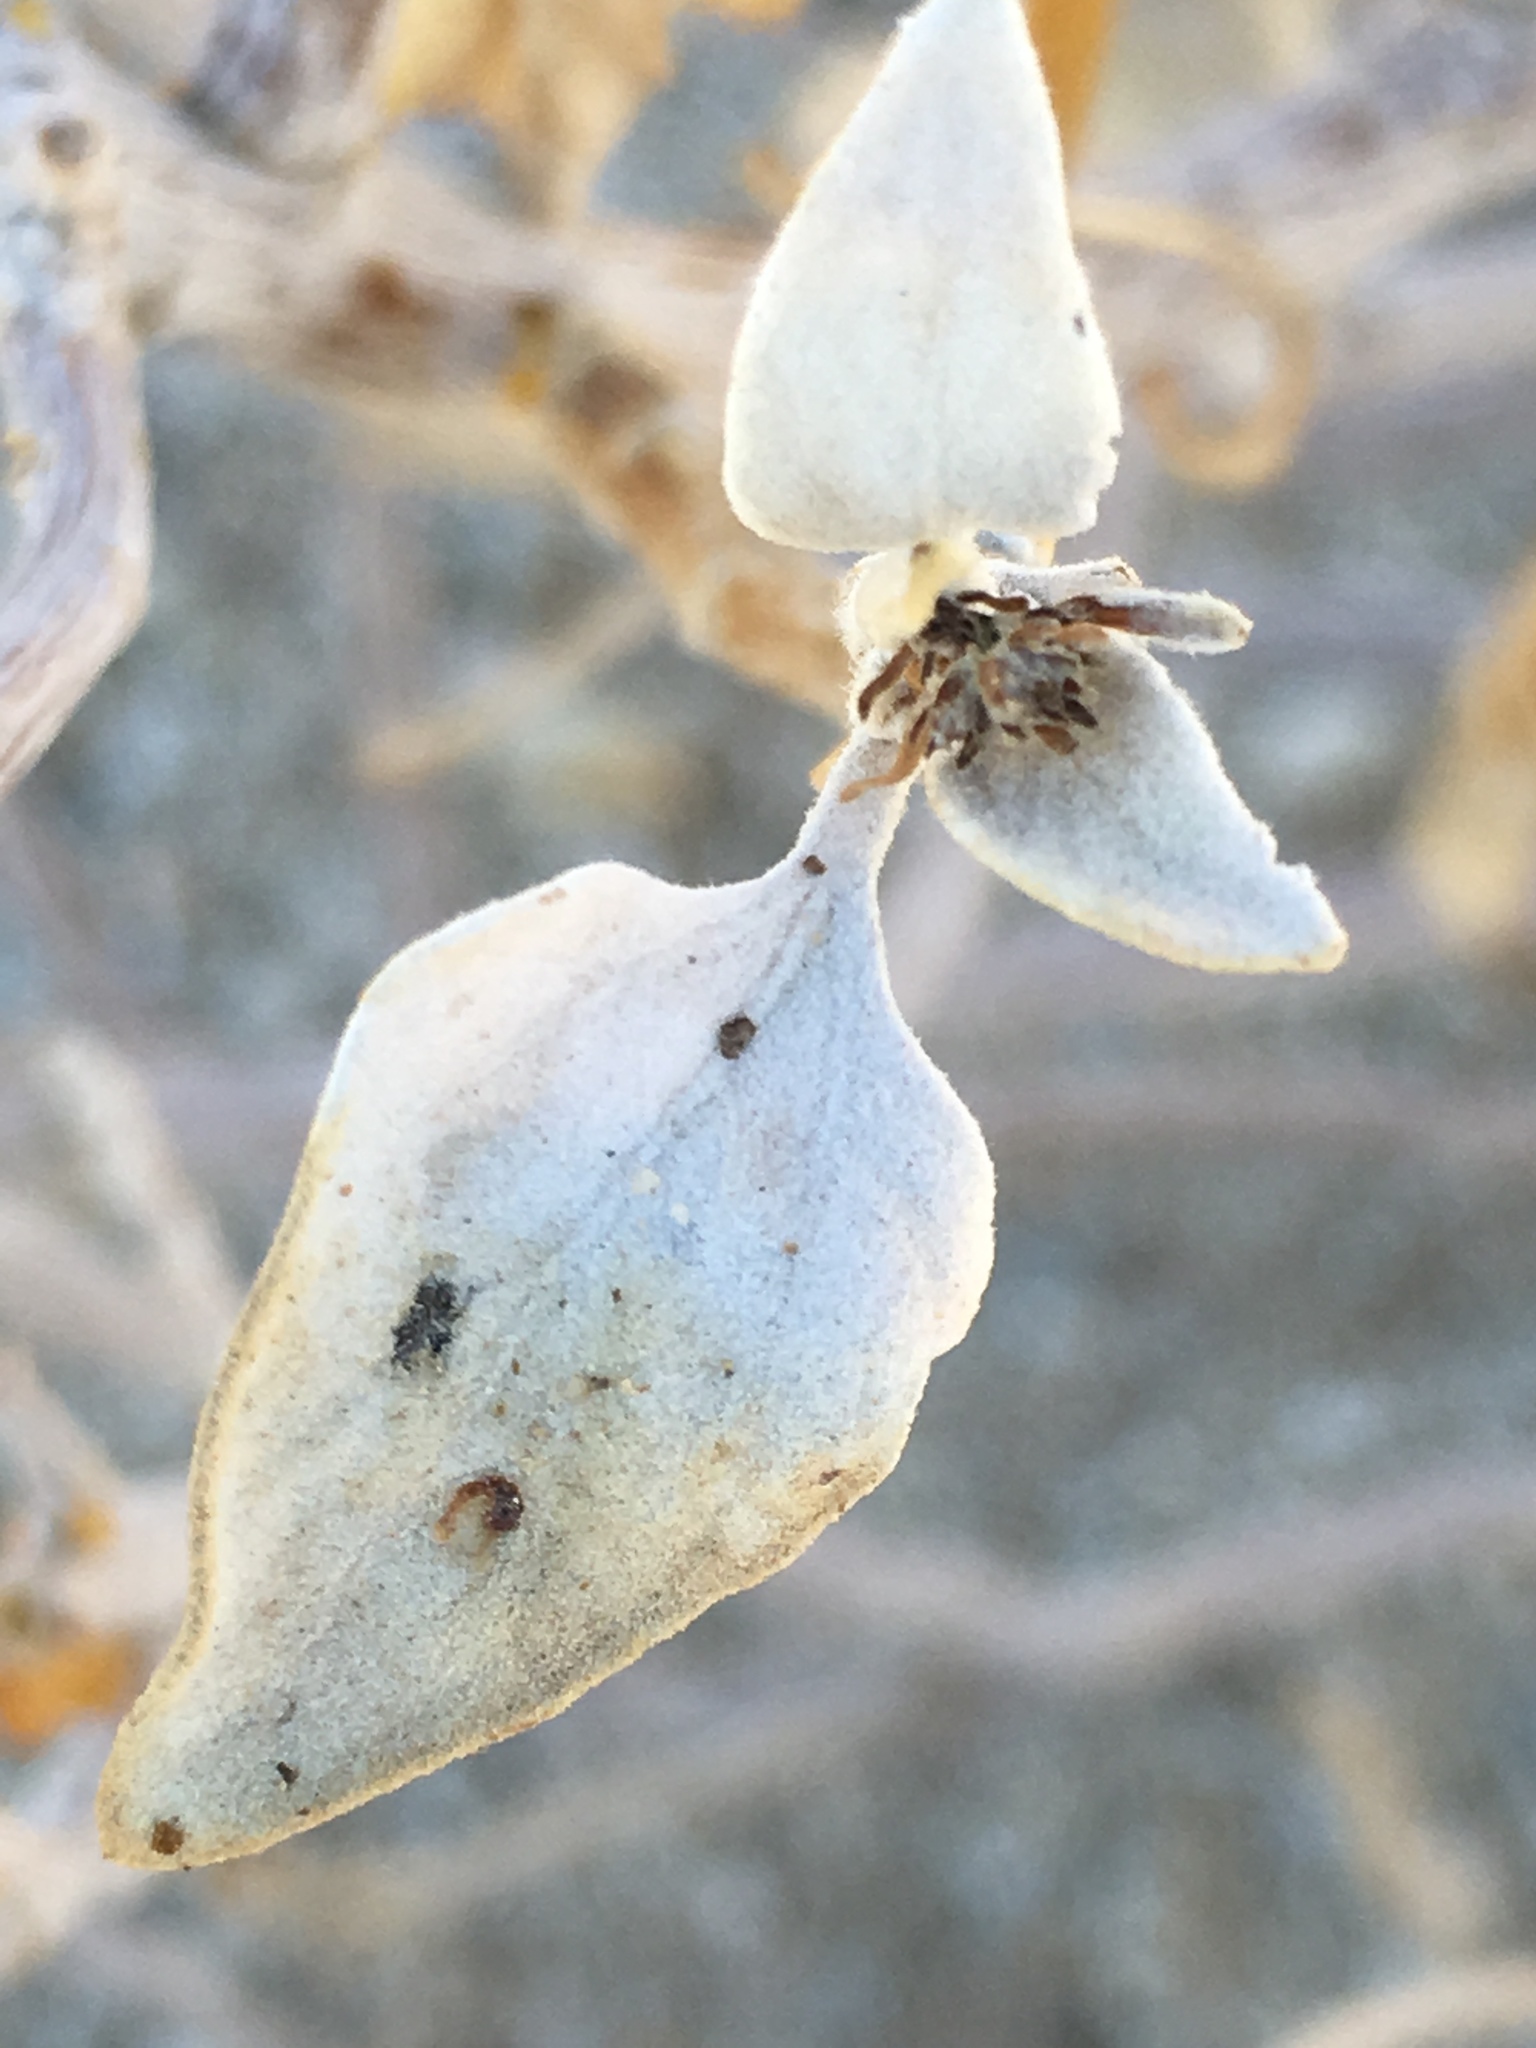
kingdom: Plantae
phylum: Tracheophyta
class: Magnoliopsida
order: Asterales
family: Asteraceae
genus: Encelia
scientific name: Encelia farinosa
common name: Brittlebush
